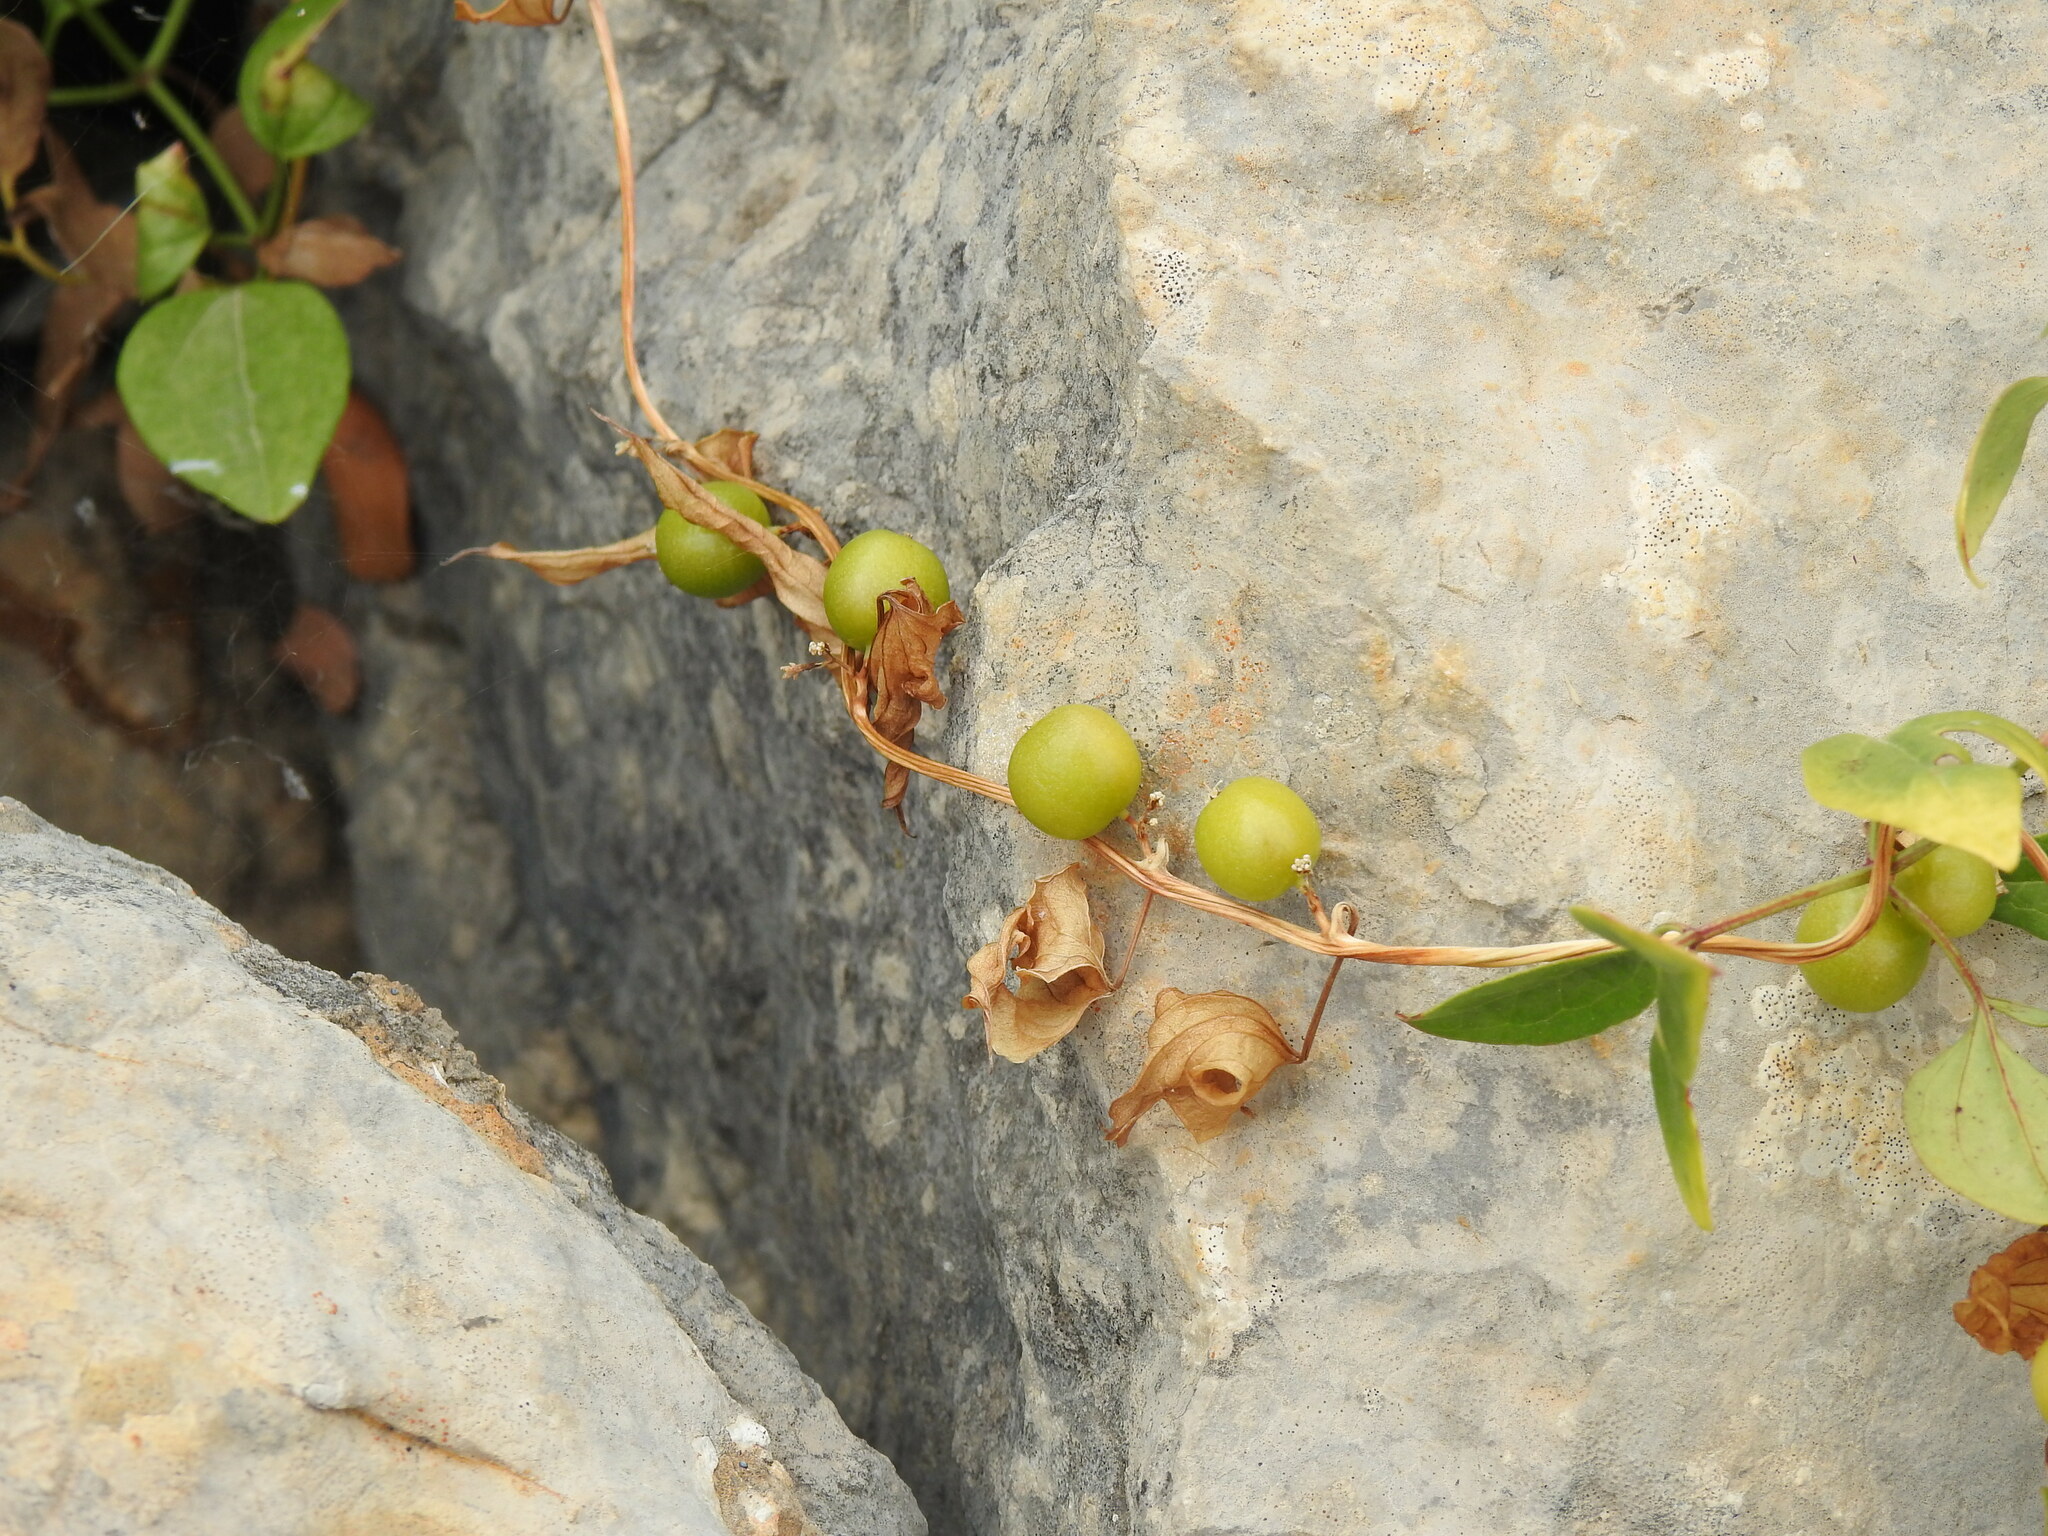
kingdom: Plantae
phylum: Tracheophyta
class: Liliopsida
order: Dioscoreales
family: Dioscoreaceae
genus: Dioscorea
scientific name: Dioscorea communis
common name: Black-bindweed
